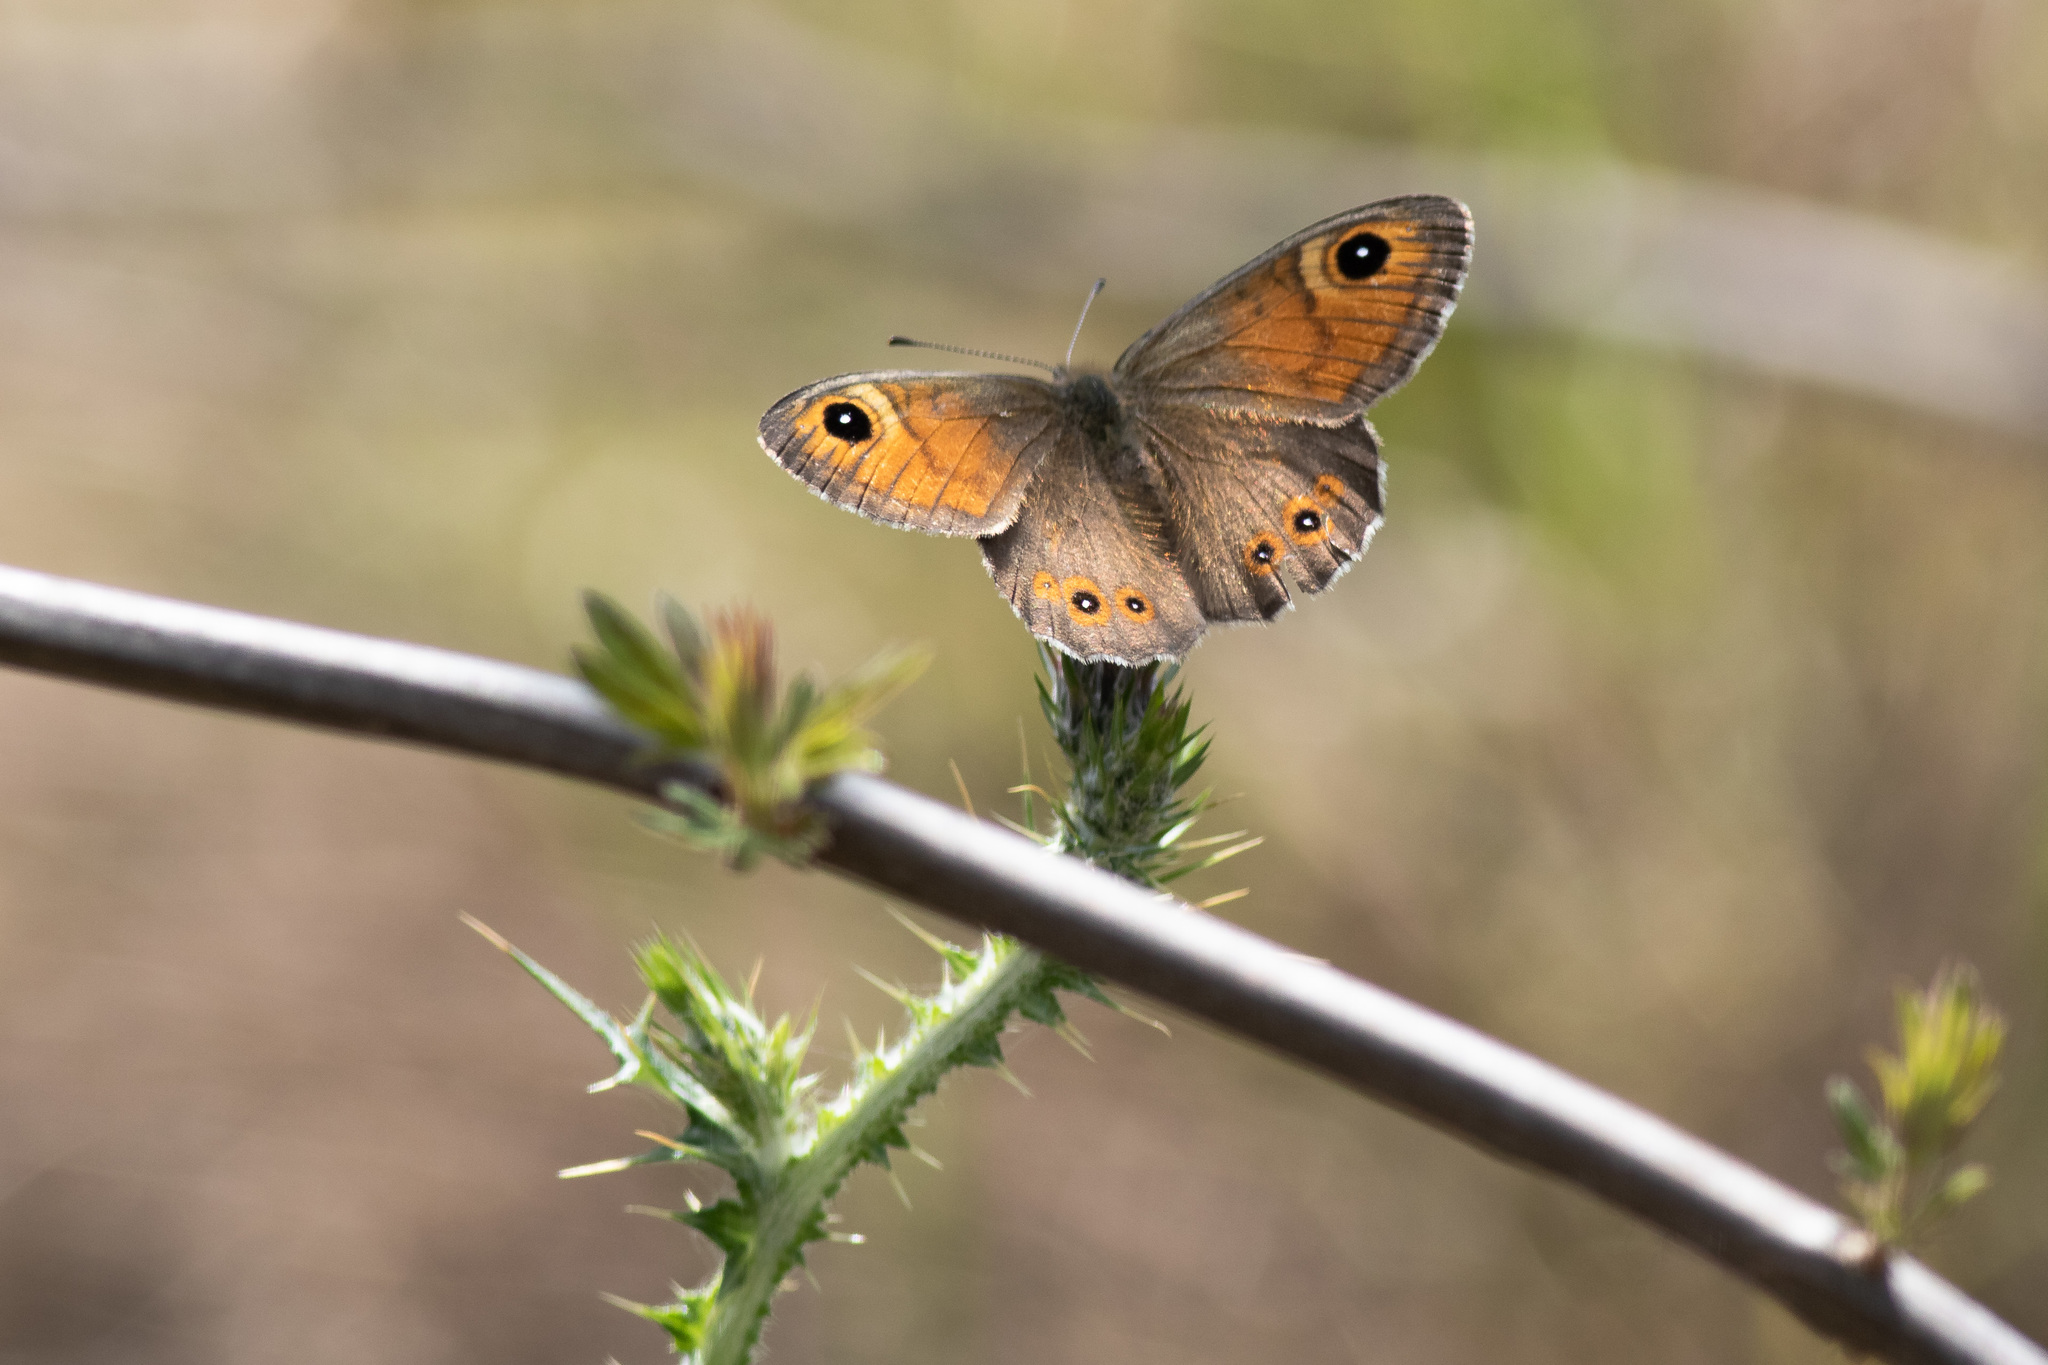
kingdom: Animalia
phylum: Arthropoda
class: Insecta
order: Lepidoptera
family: Nymphalidae
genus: Pararge
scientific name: Pararge Lasiommata maera
